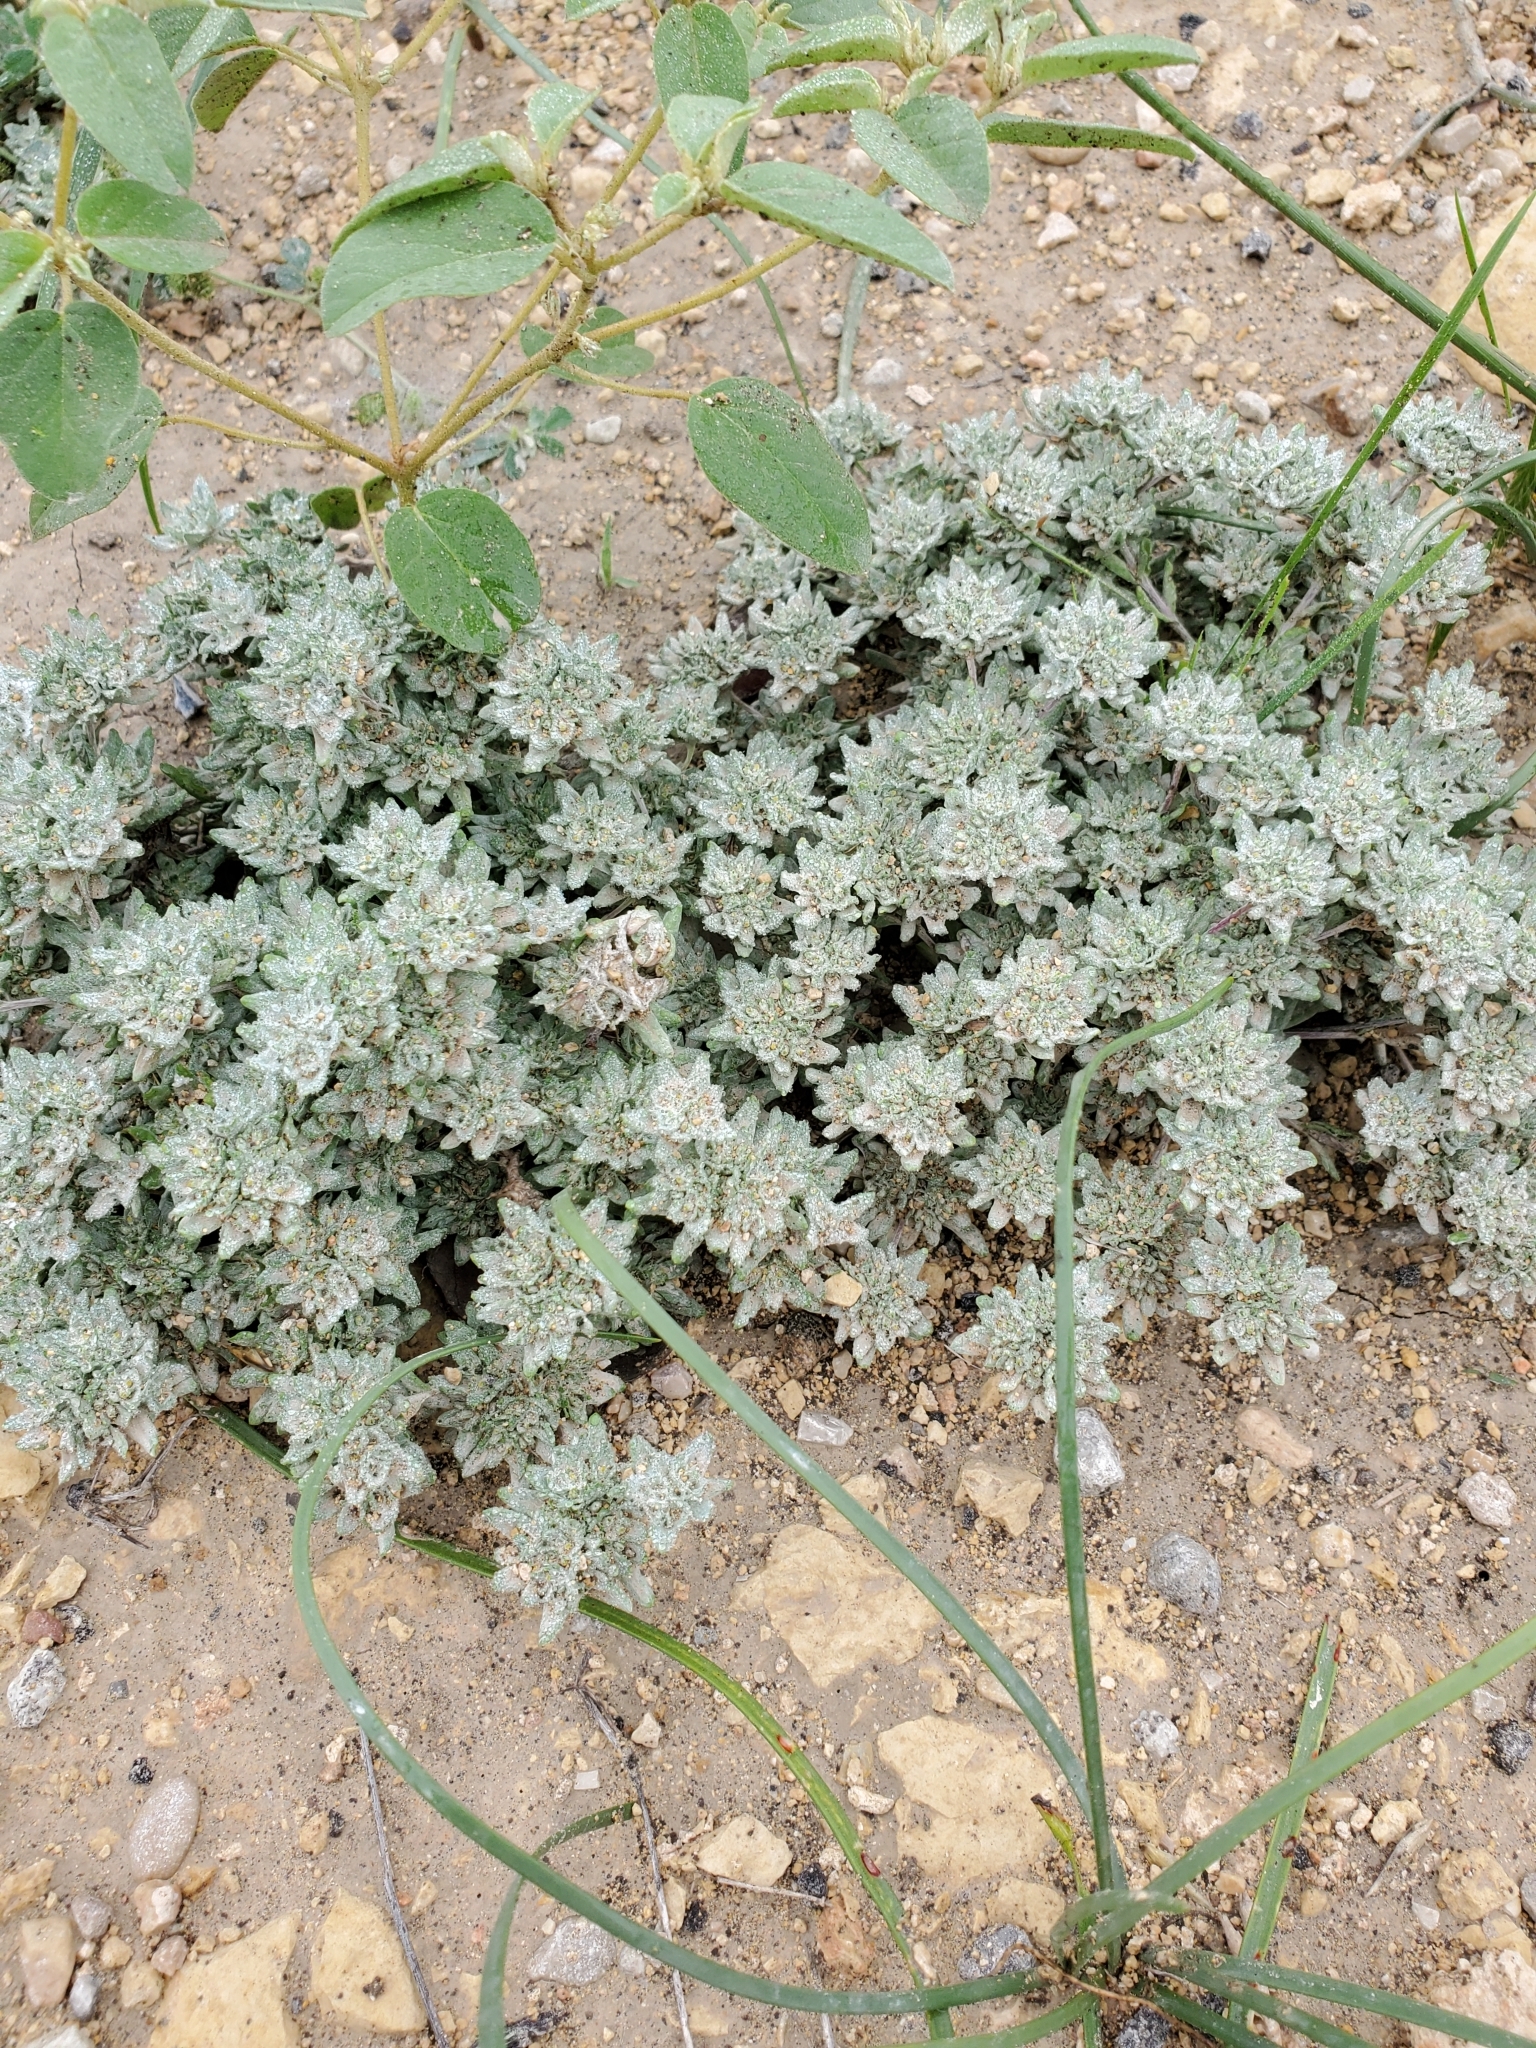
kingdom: Plantae
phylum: Tracheophyta
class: Magnoliopsida
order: Asterales
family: Asteraceae
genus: Diaperia
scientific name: Diaperia prolifera
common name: Big-head rabbit-tobacco
